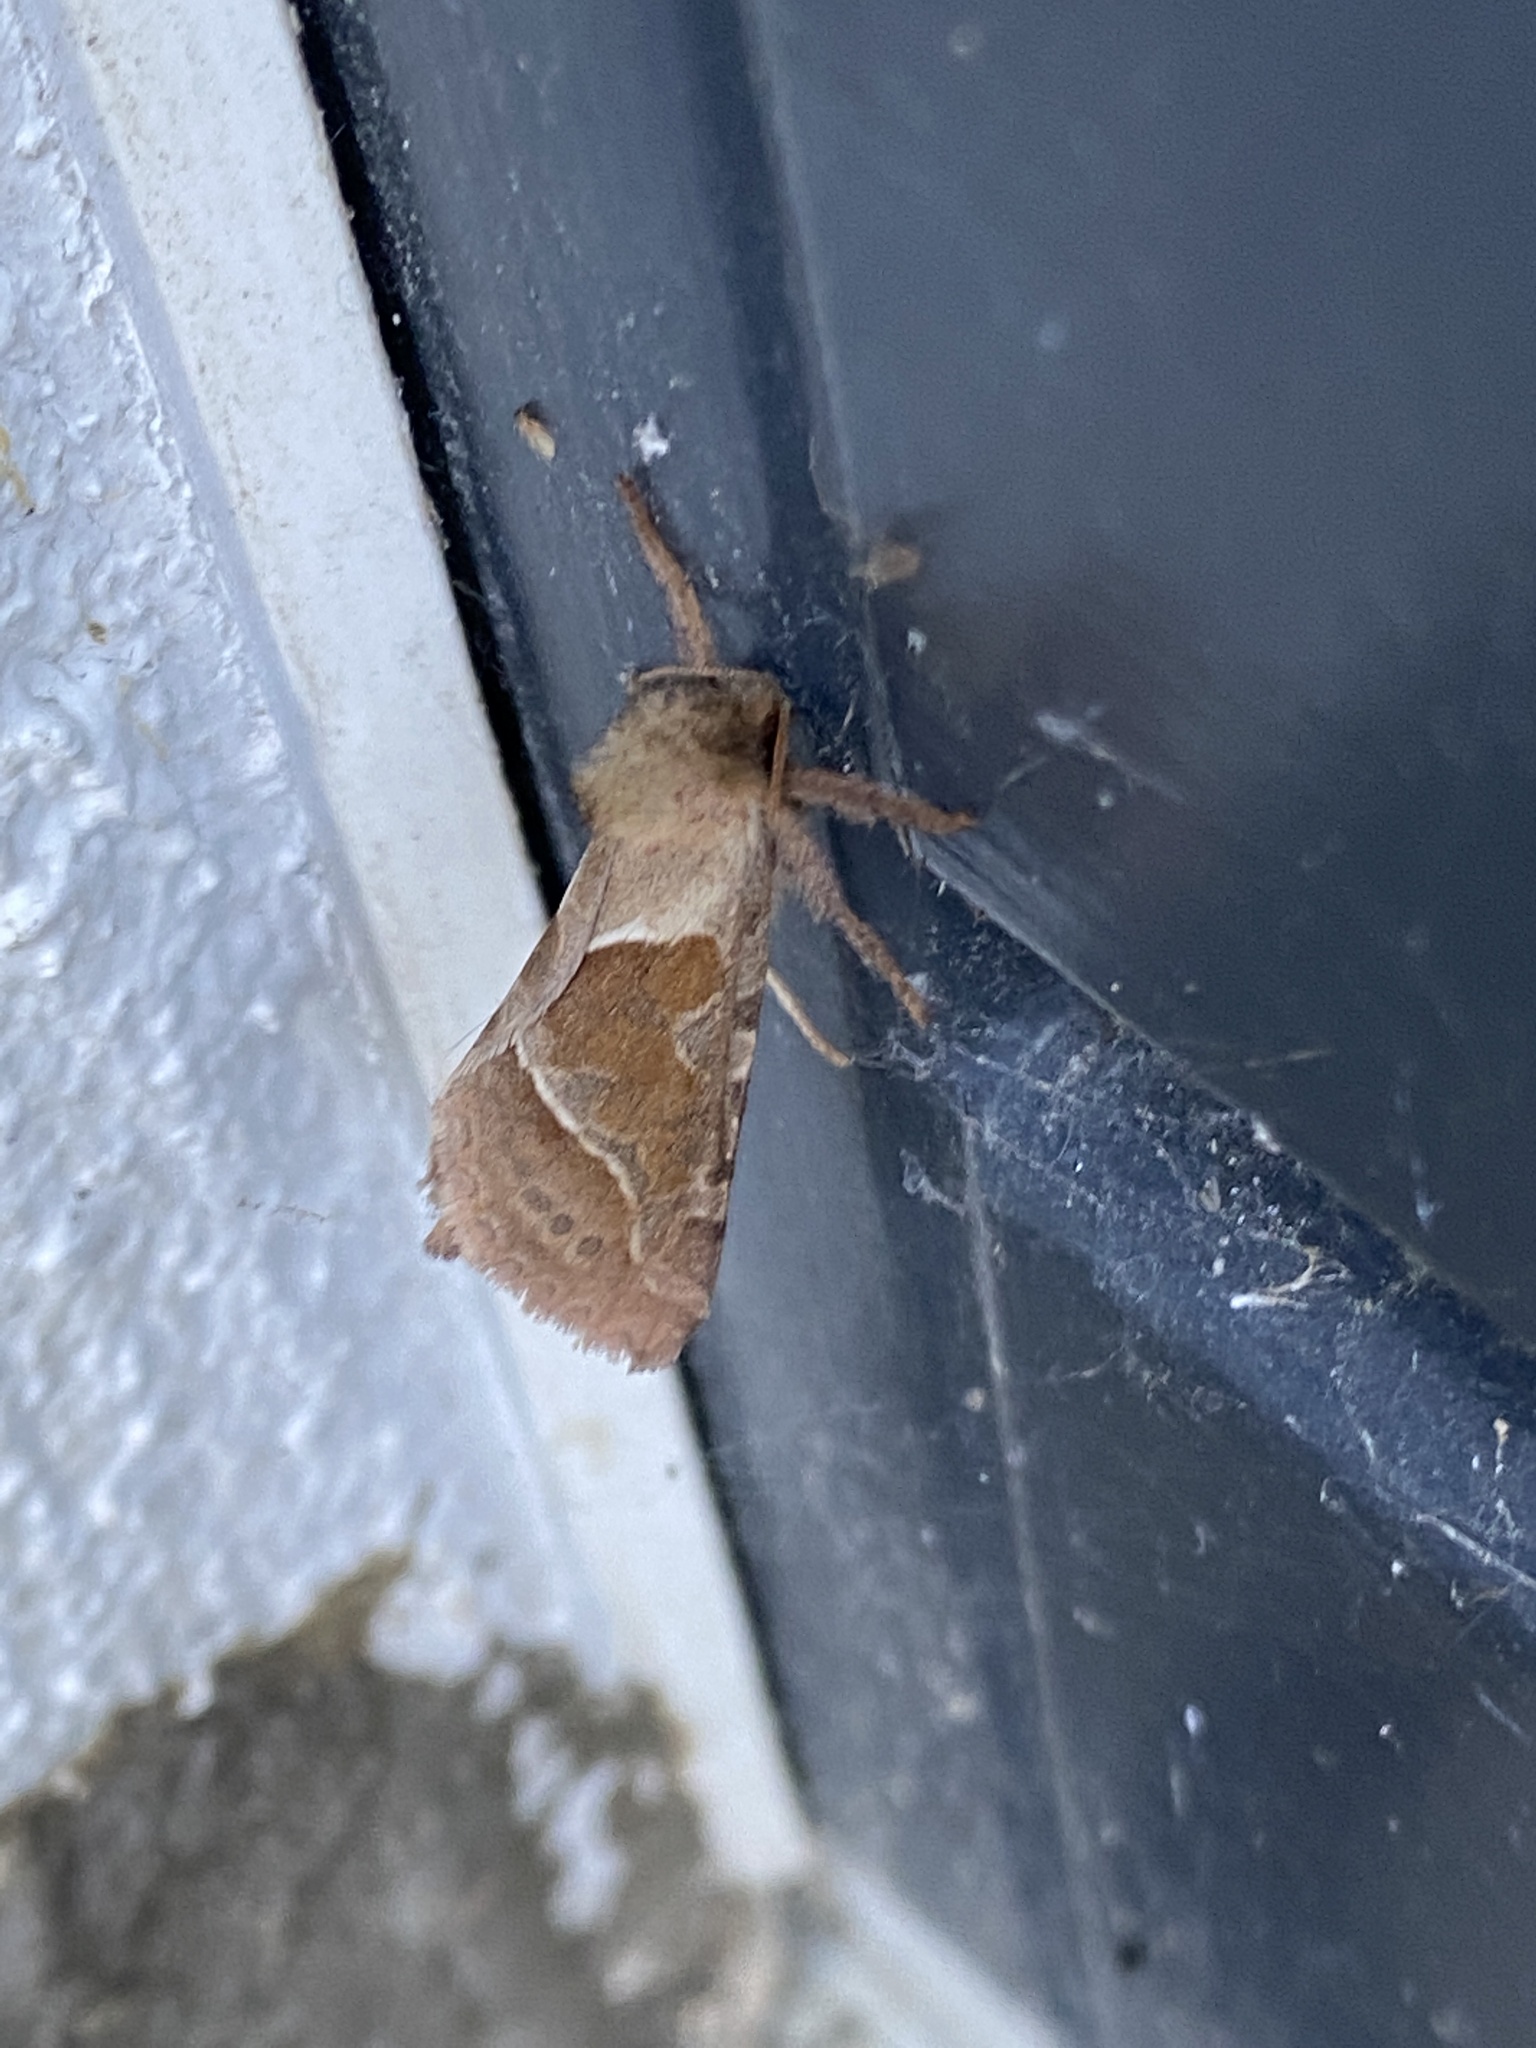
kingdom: Animalia
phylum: Arthropoda
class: Insecta
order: Lepidoptera
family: Hepialidae
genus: Triodia
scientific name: Triodia sylvina
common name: Orange swift
